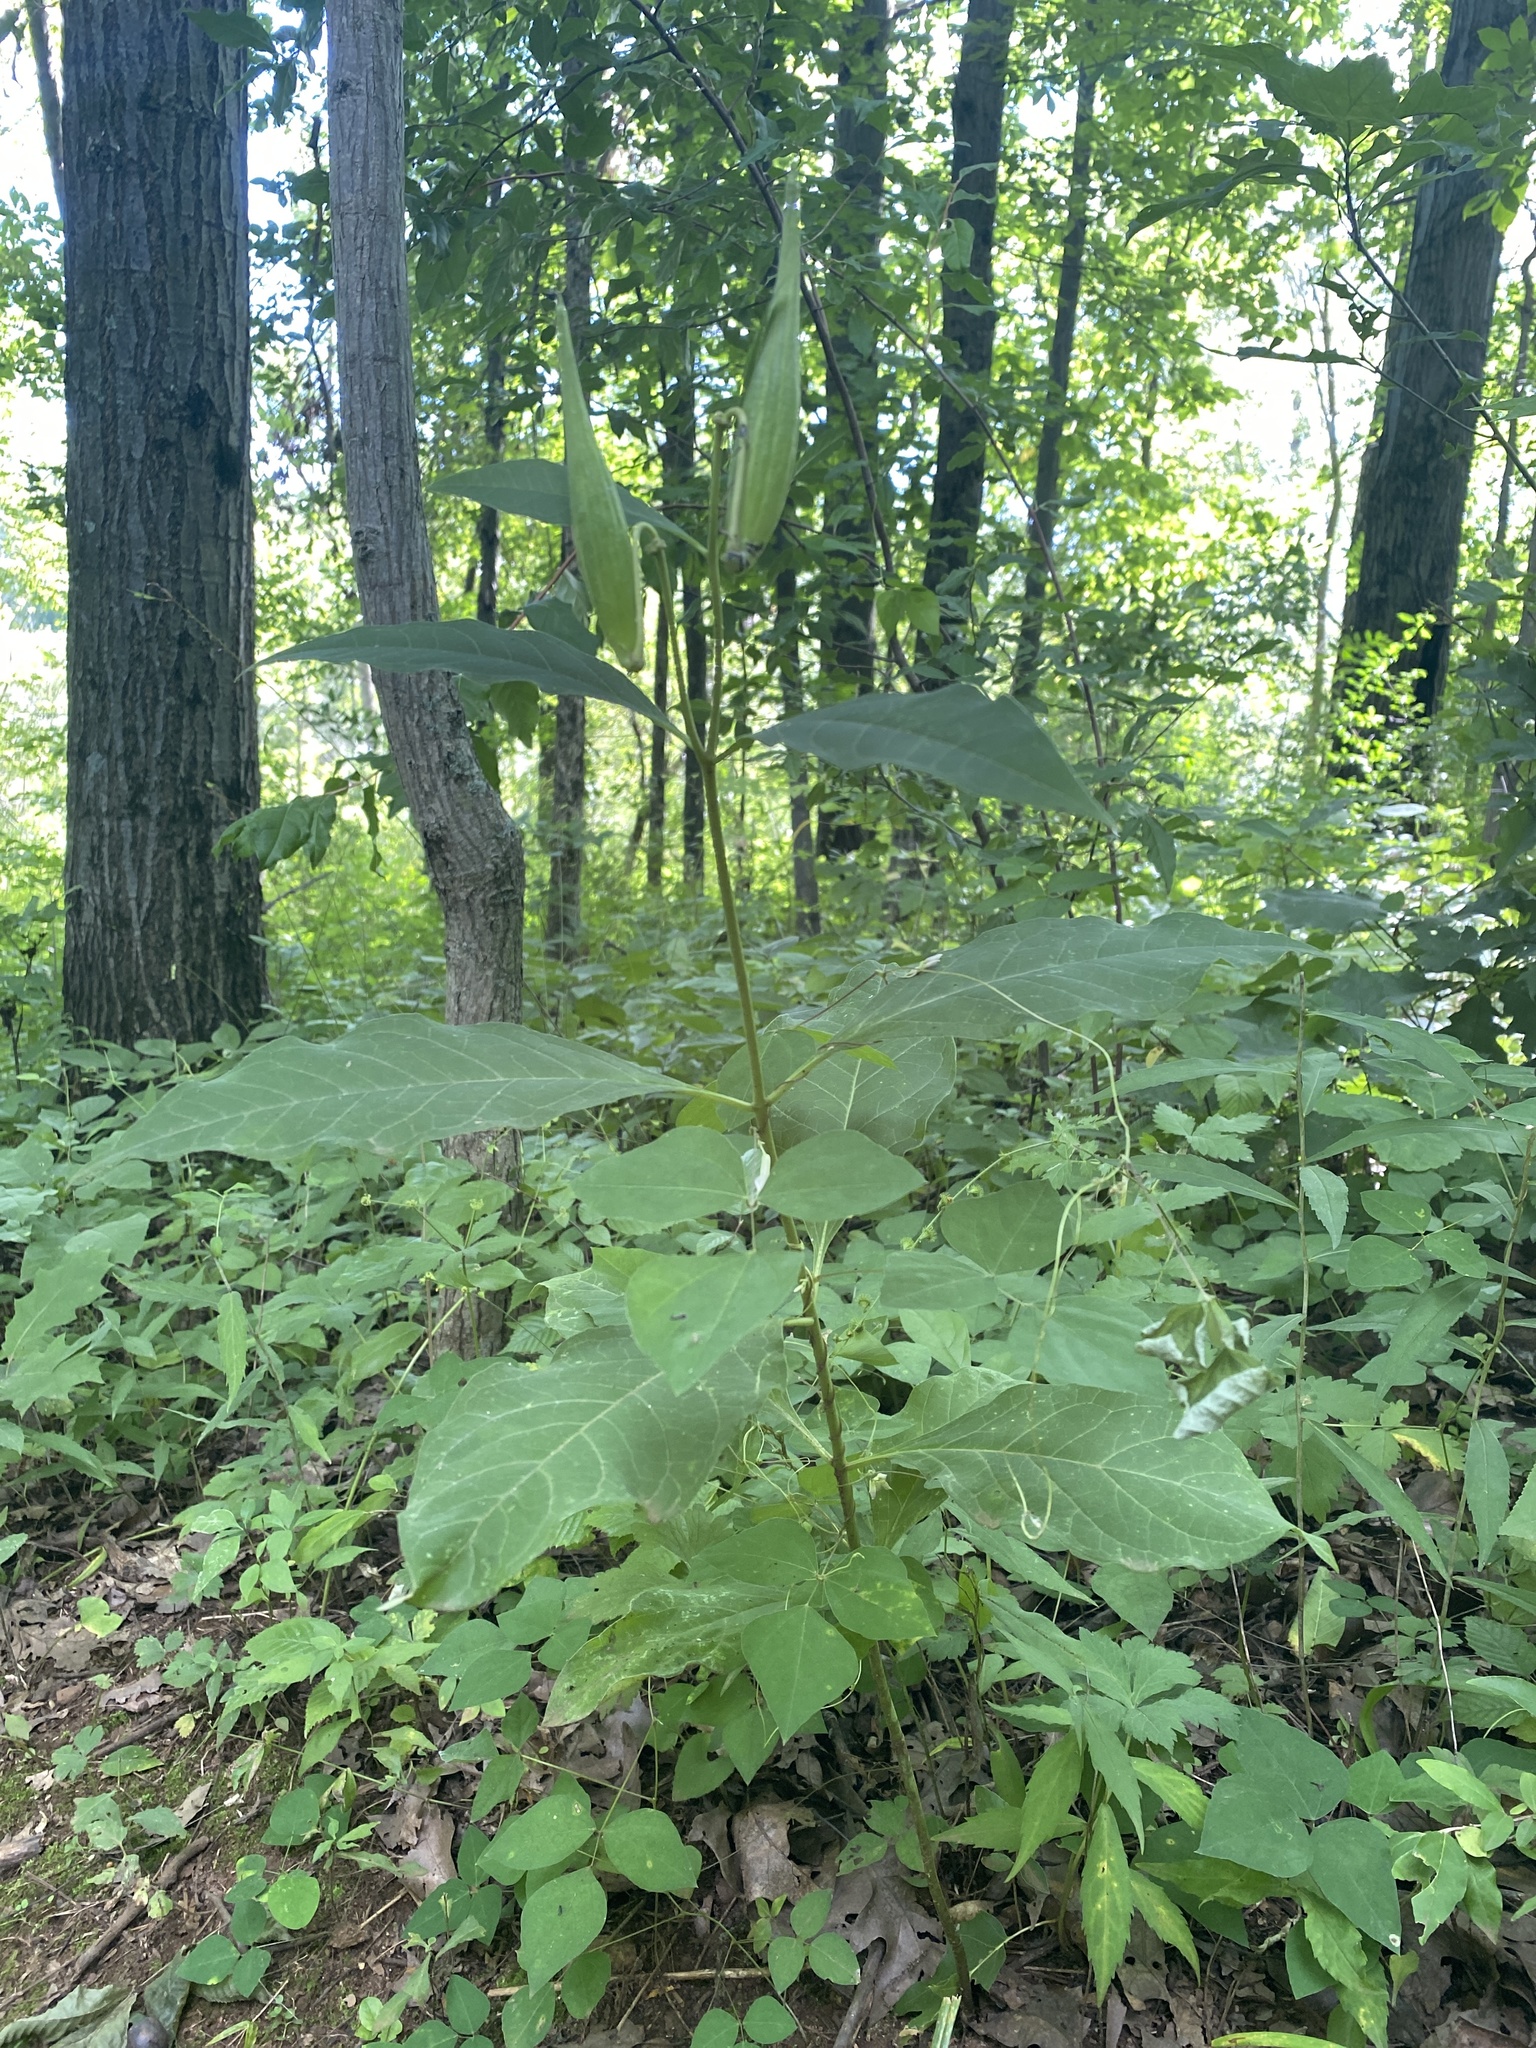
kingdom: Plantae
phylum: Tracheophyta
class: Magnoliopsida
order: Gentianales
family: Apocynaceae
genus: Asclepias
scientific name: Asclepias exaltata
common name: Poke milkweed
